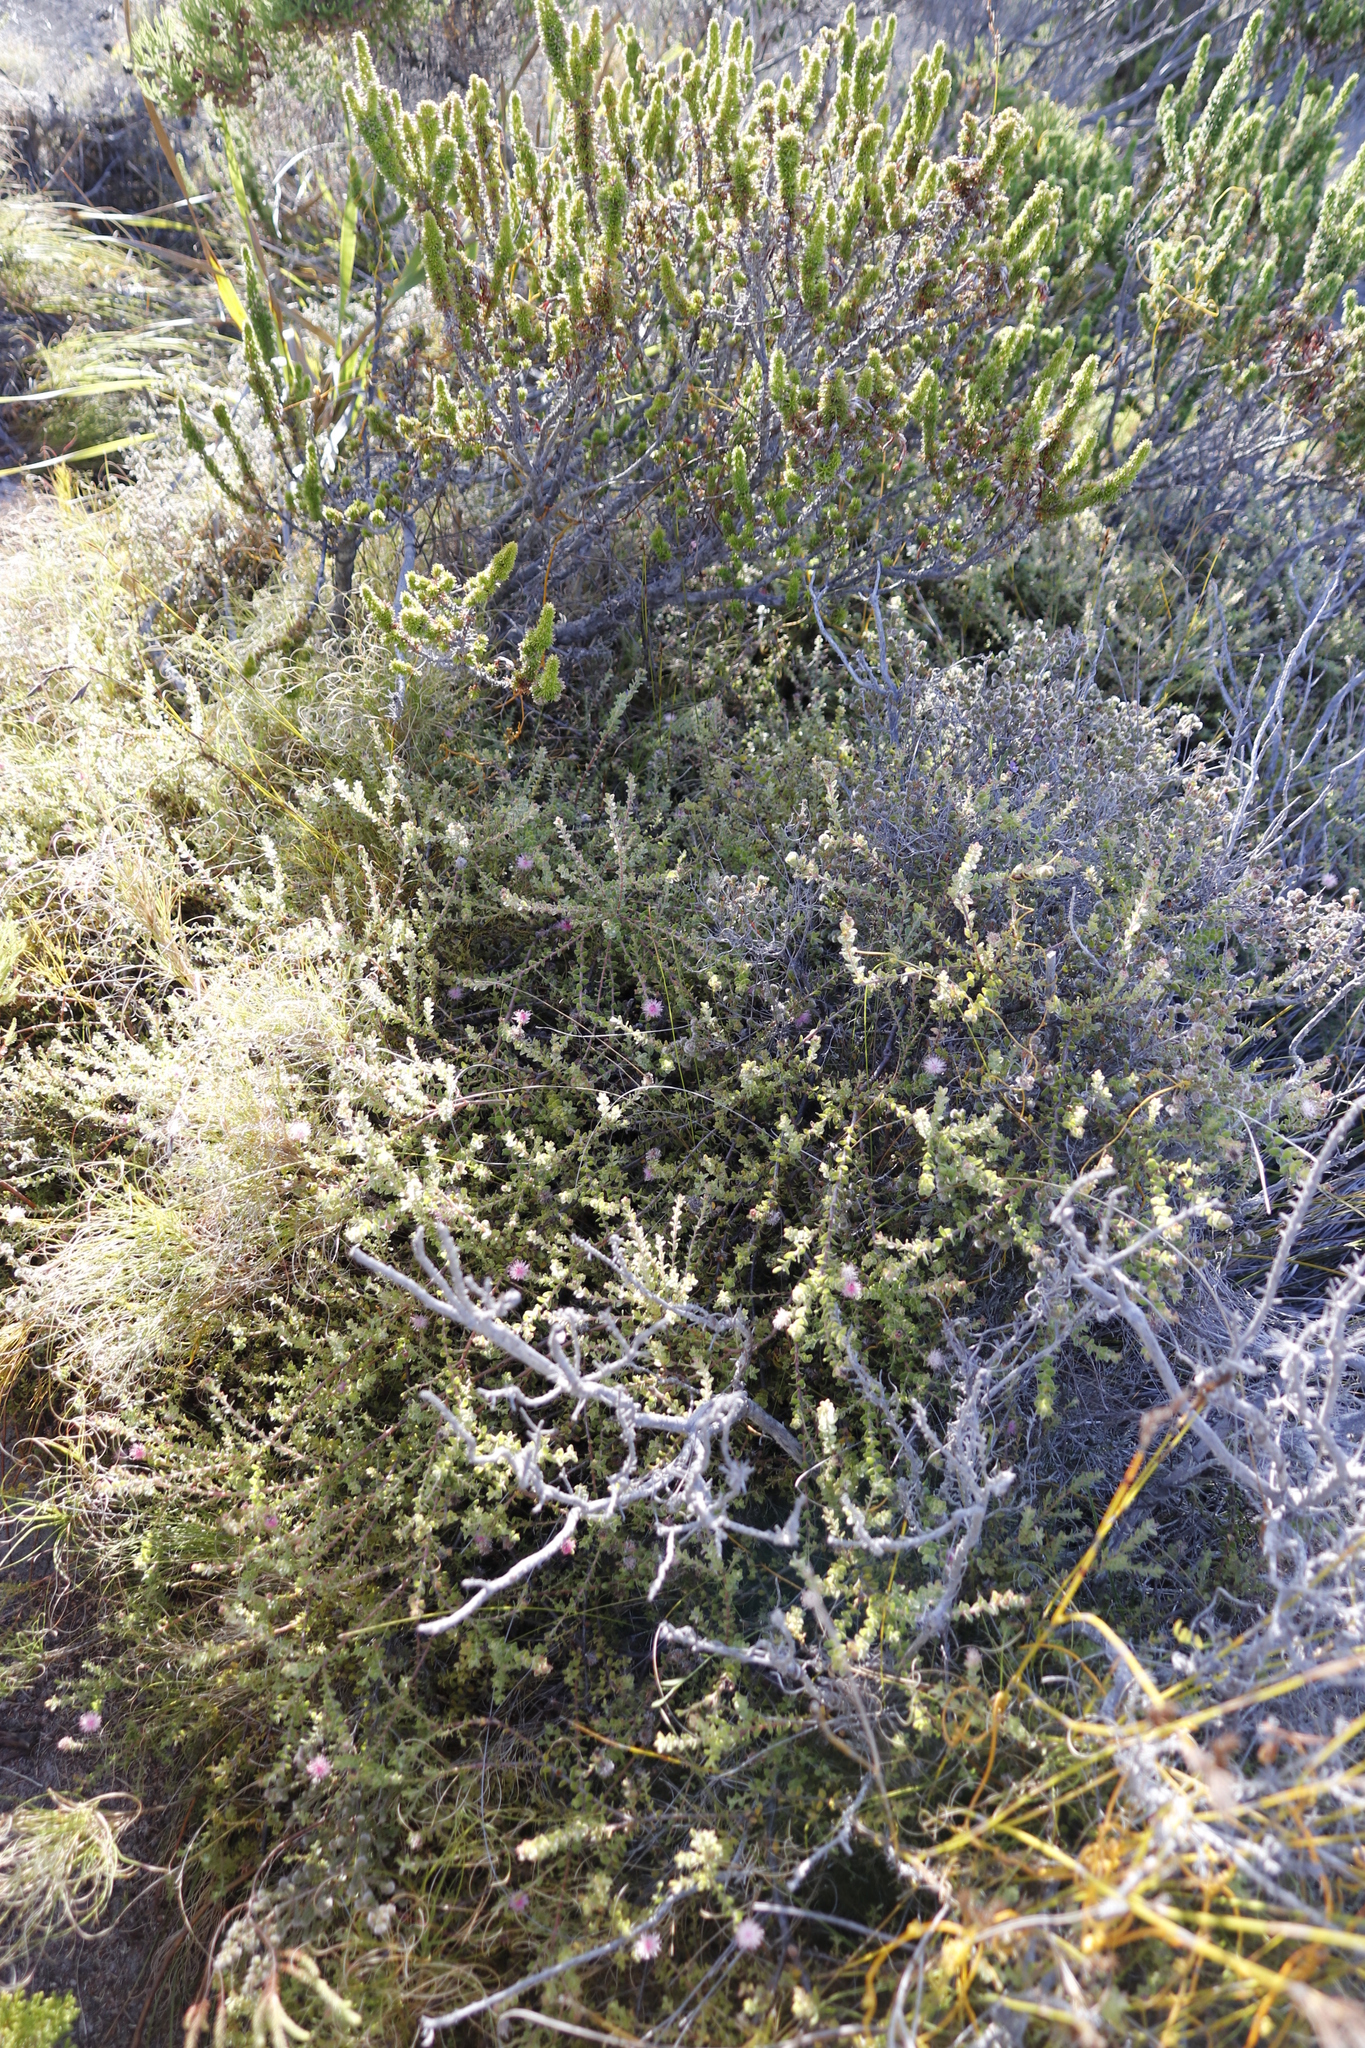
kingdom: Plantae
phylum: Tracheophyta
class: Magnoliopsida
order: Ericales
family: Ericaceae
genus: Erica
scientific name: Erica coccinea
